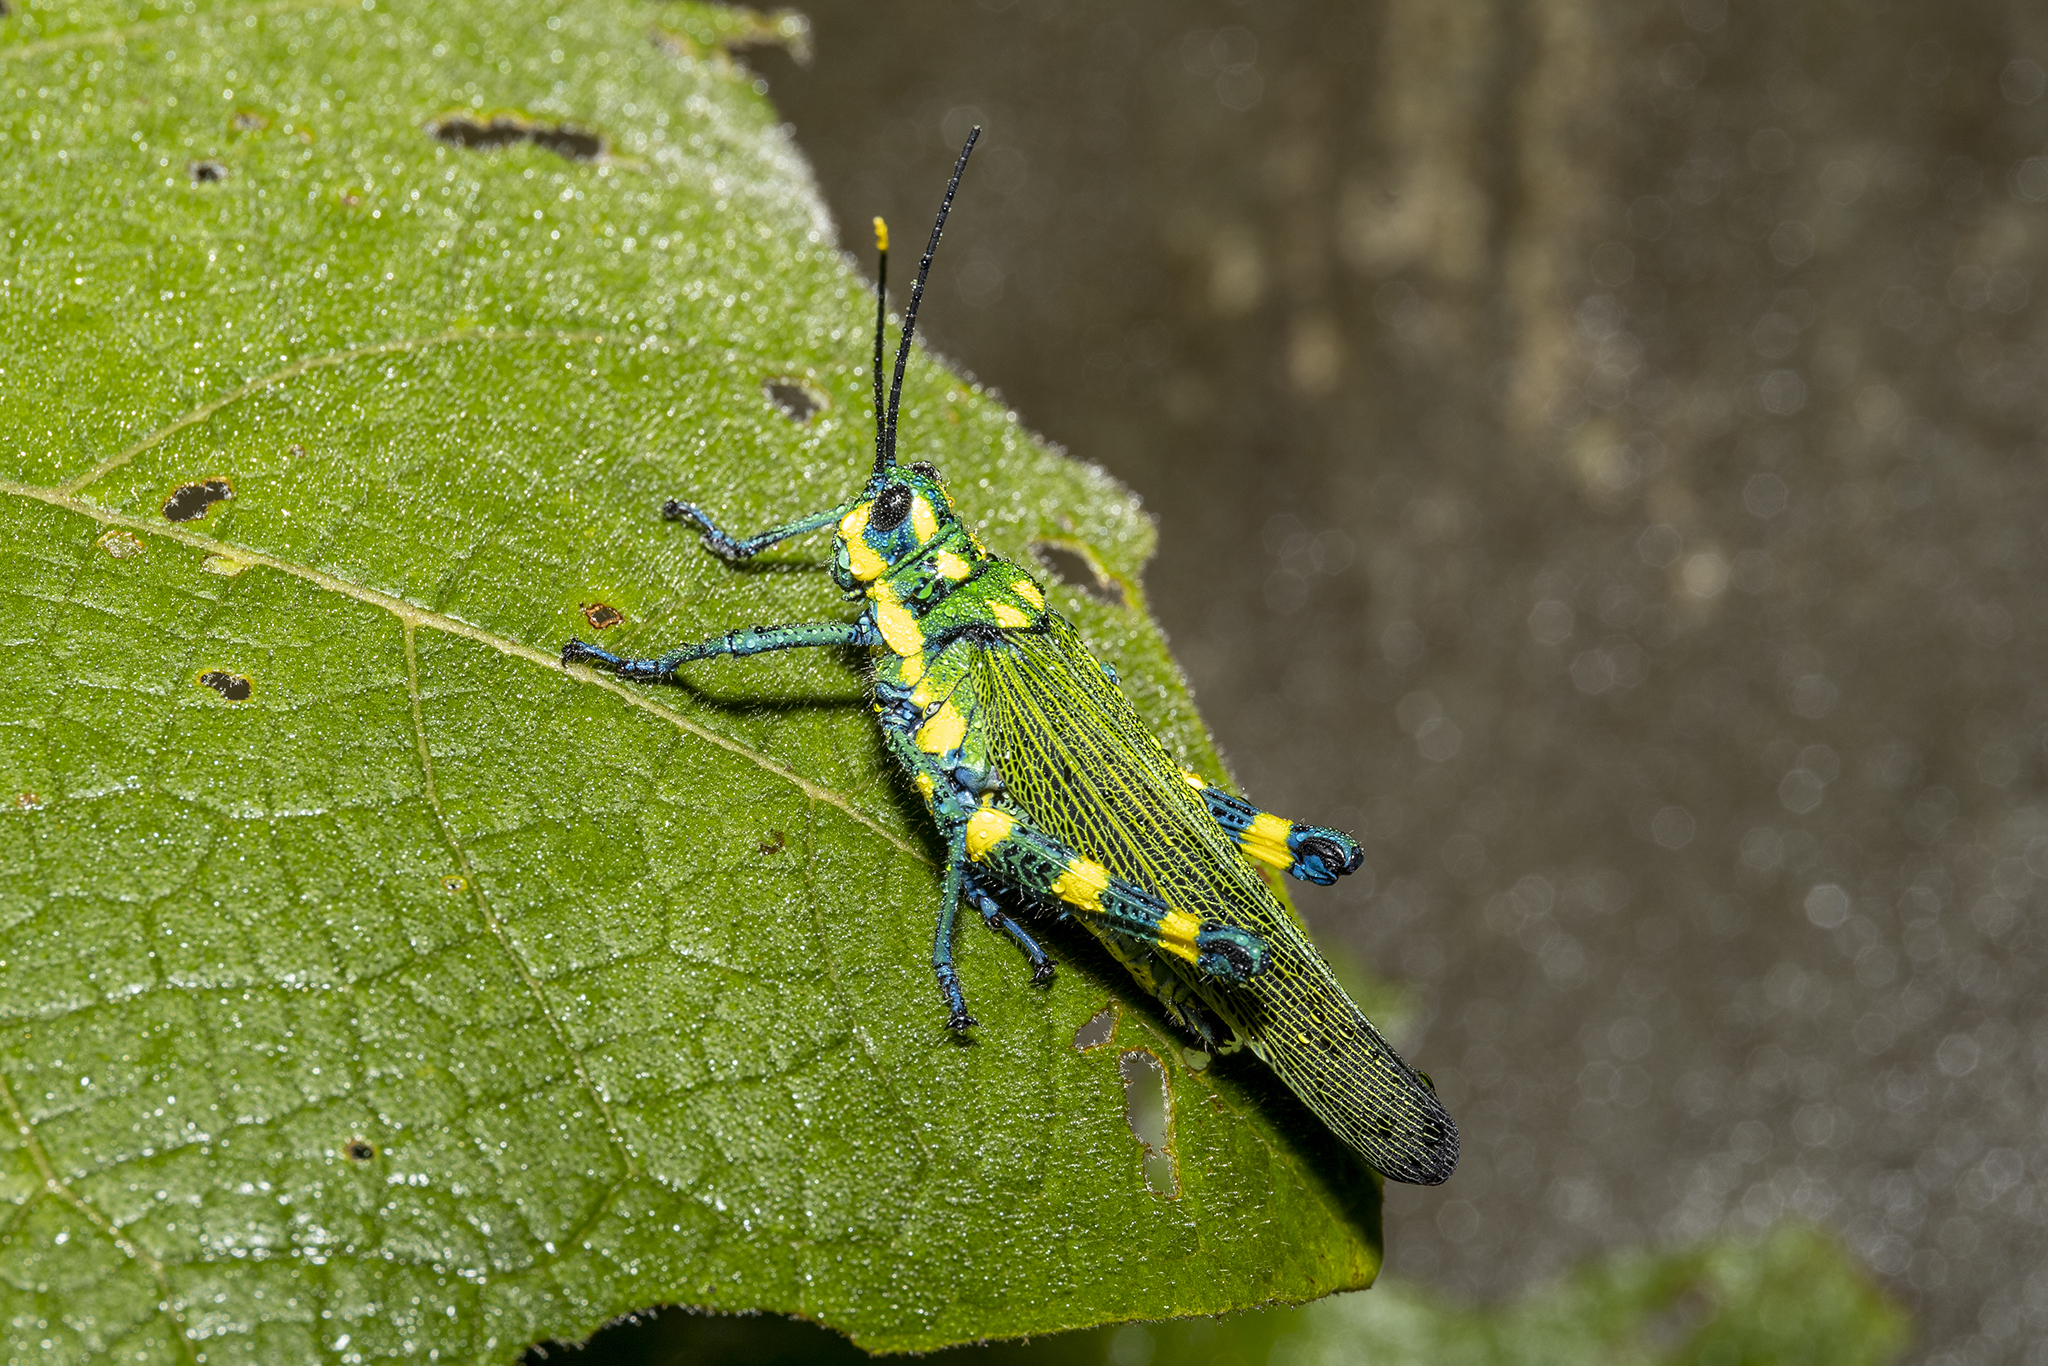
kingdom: Animalia
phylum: Arthropoda
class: Insecta
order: Orthoptera
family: Romaleidae
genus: Chromacris
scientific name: Chromacris icterus
